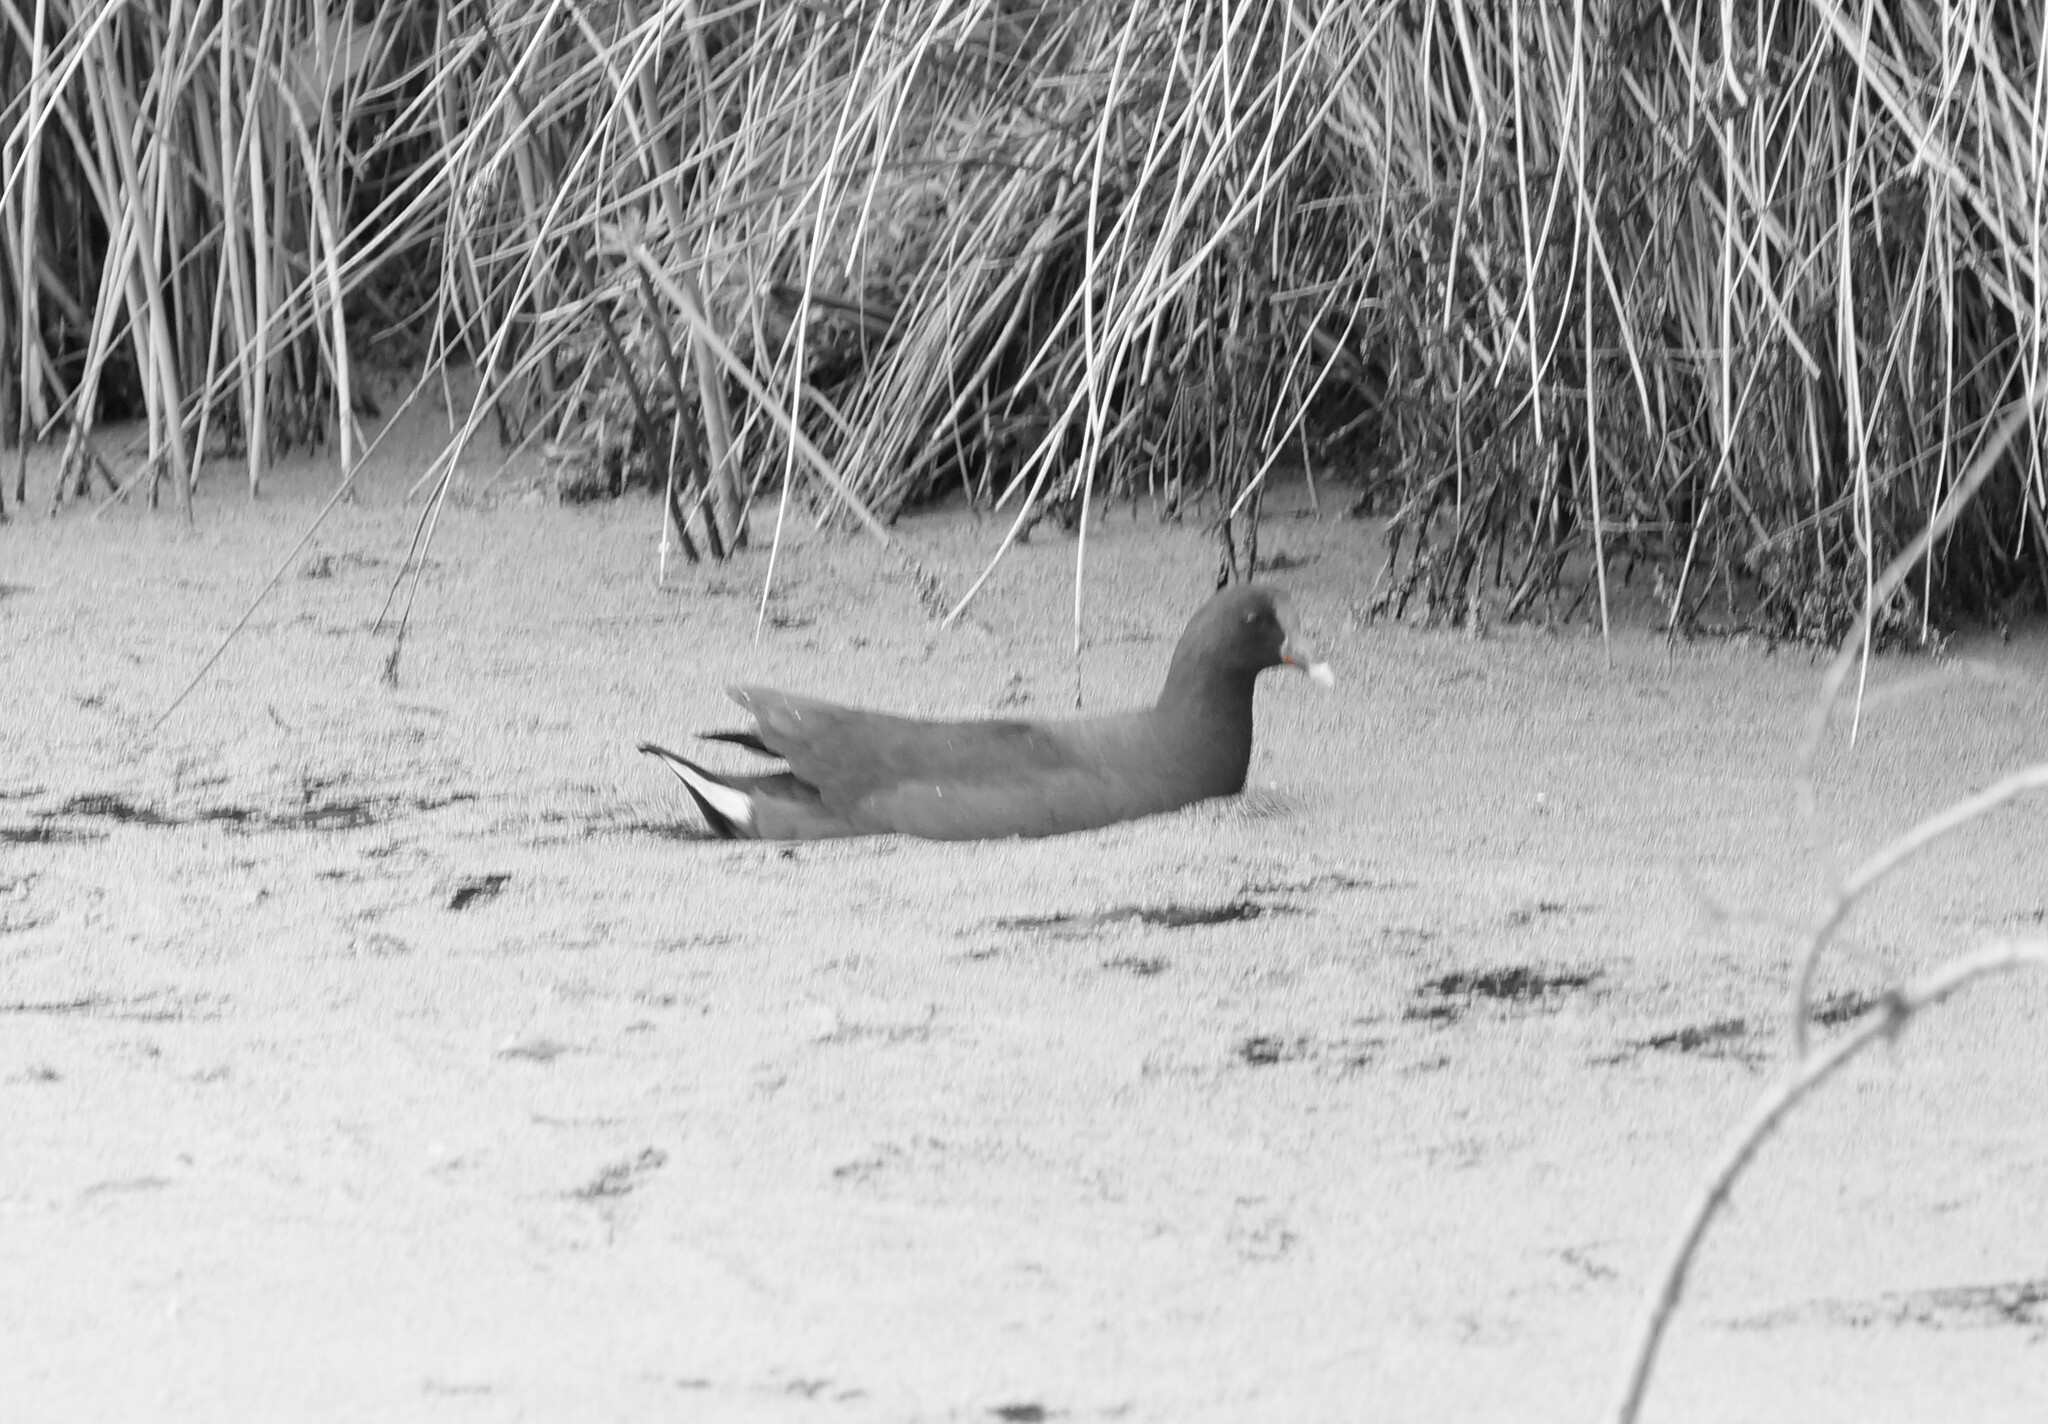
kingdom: Animalia
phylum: Chordata
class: Aves
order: Gruiformes
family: Rallidae
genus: Gallinula
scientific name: Gallinula tenebrosa
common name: Dusky moorhen
